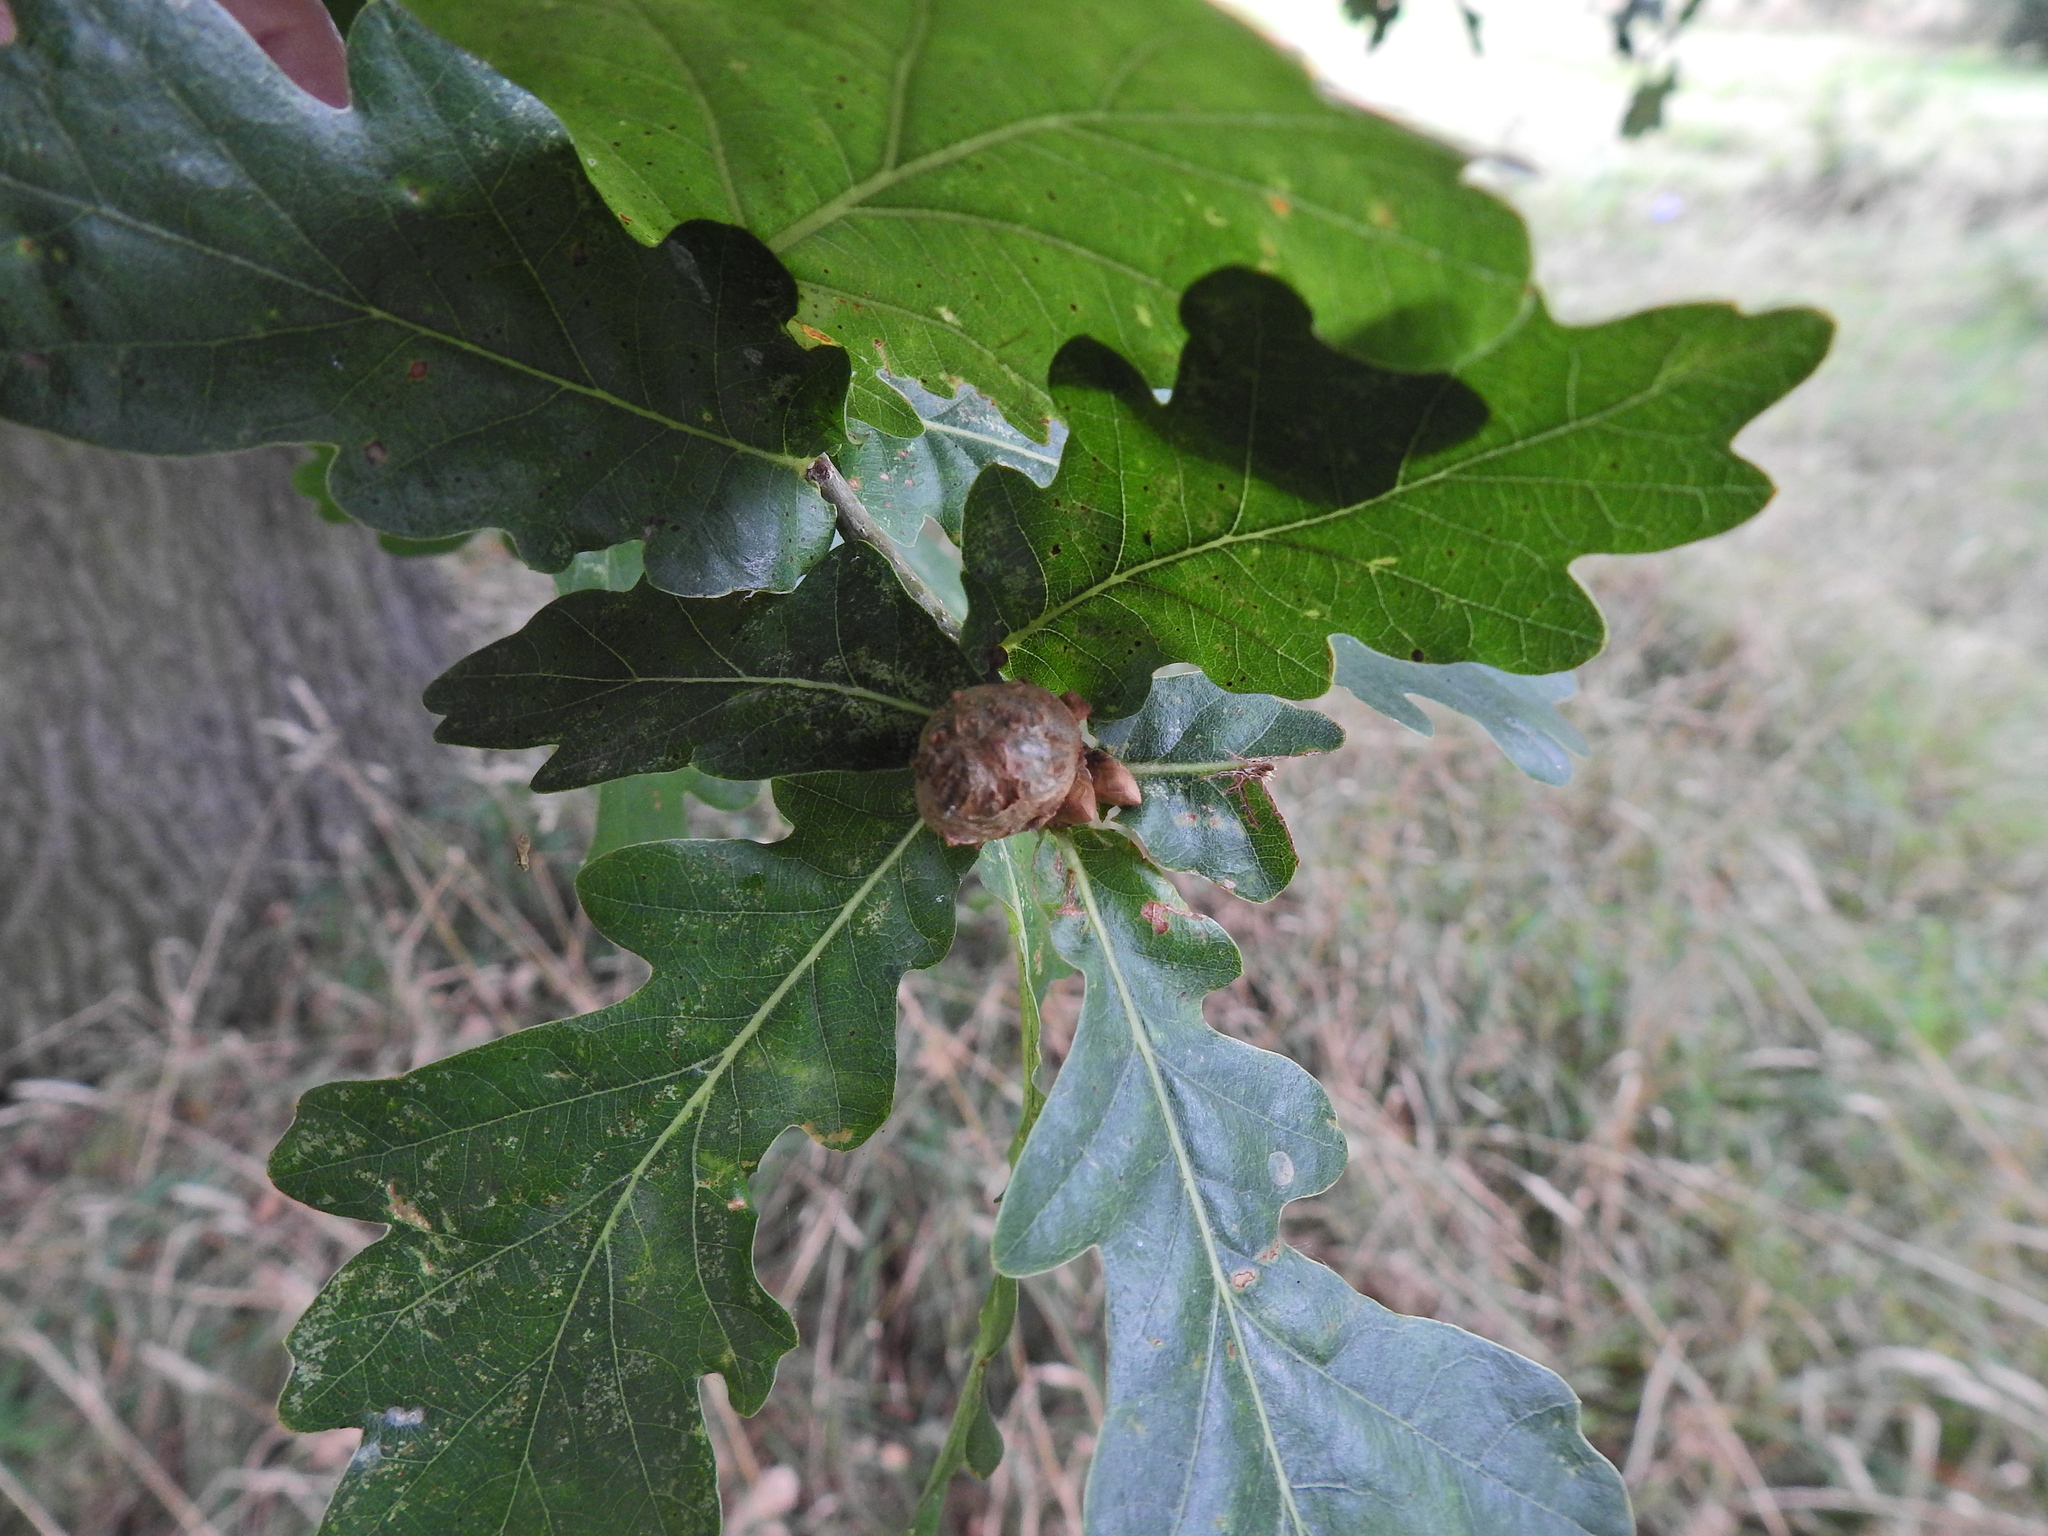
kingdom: Animalia
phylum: Arthropoda
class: Insecta
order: Hymenoptera
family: Cynipidae
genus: Andricus
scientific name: Andricus lignicolus
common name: Cola-nut gall
